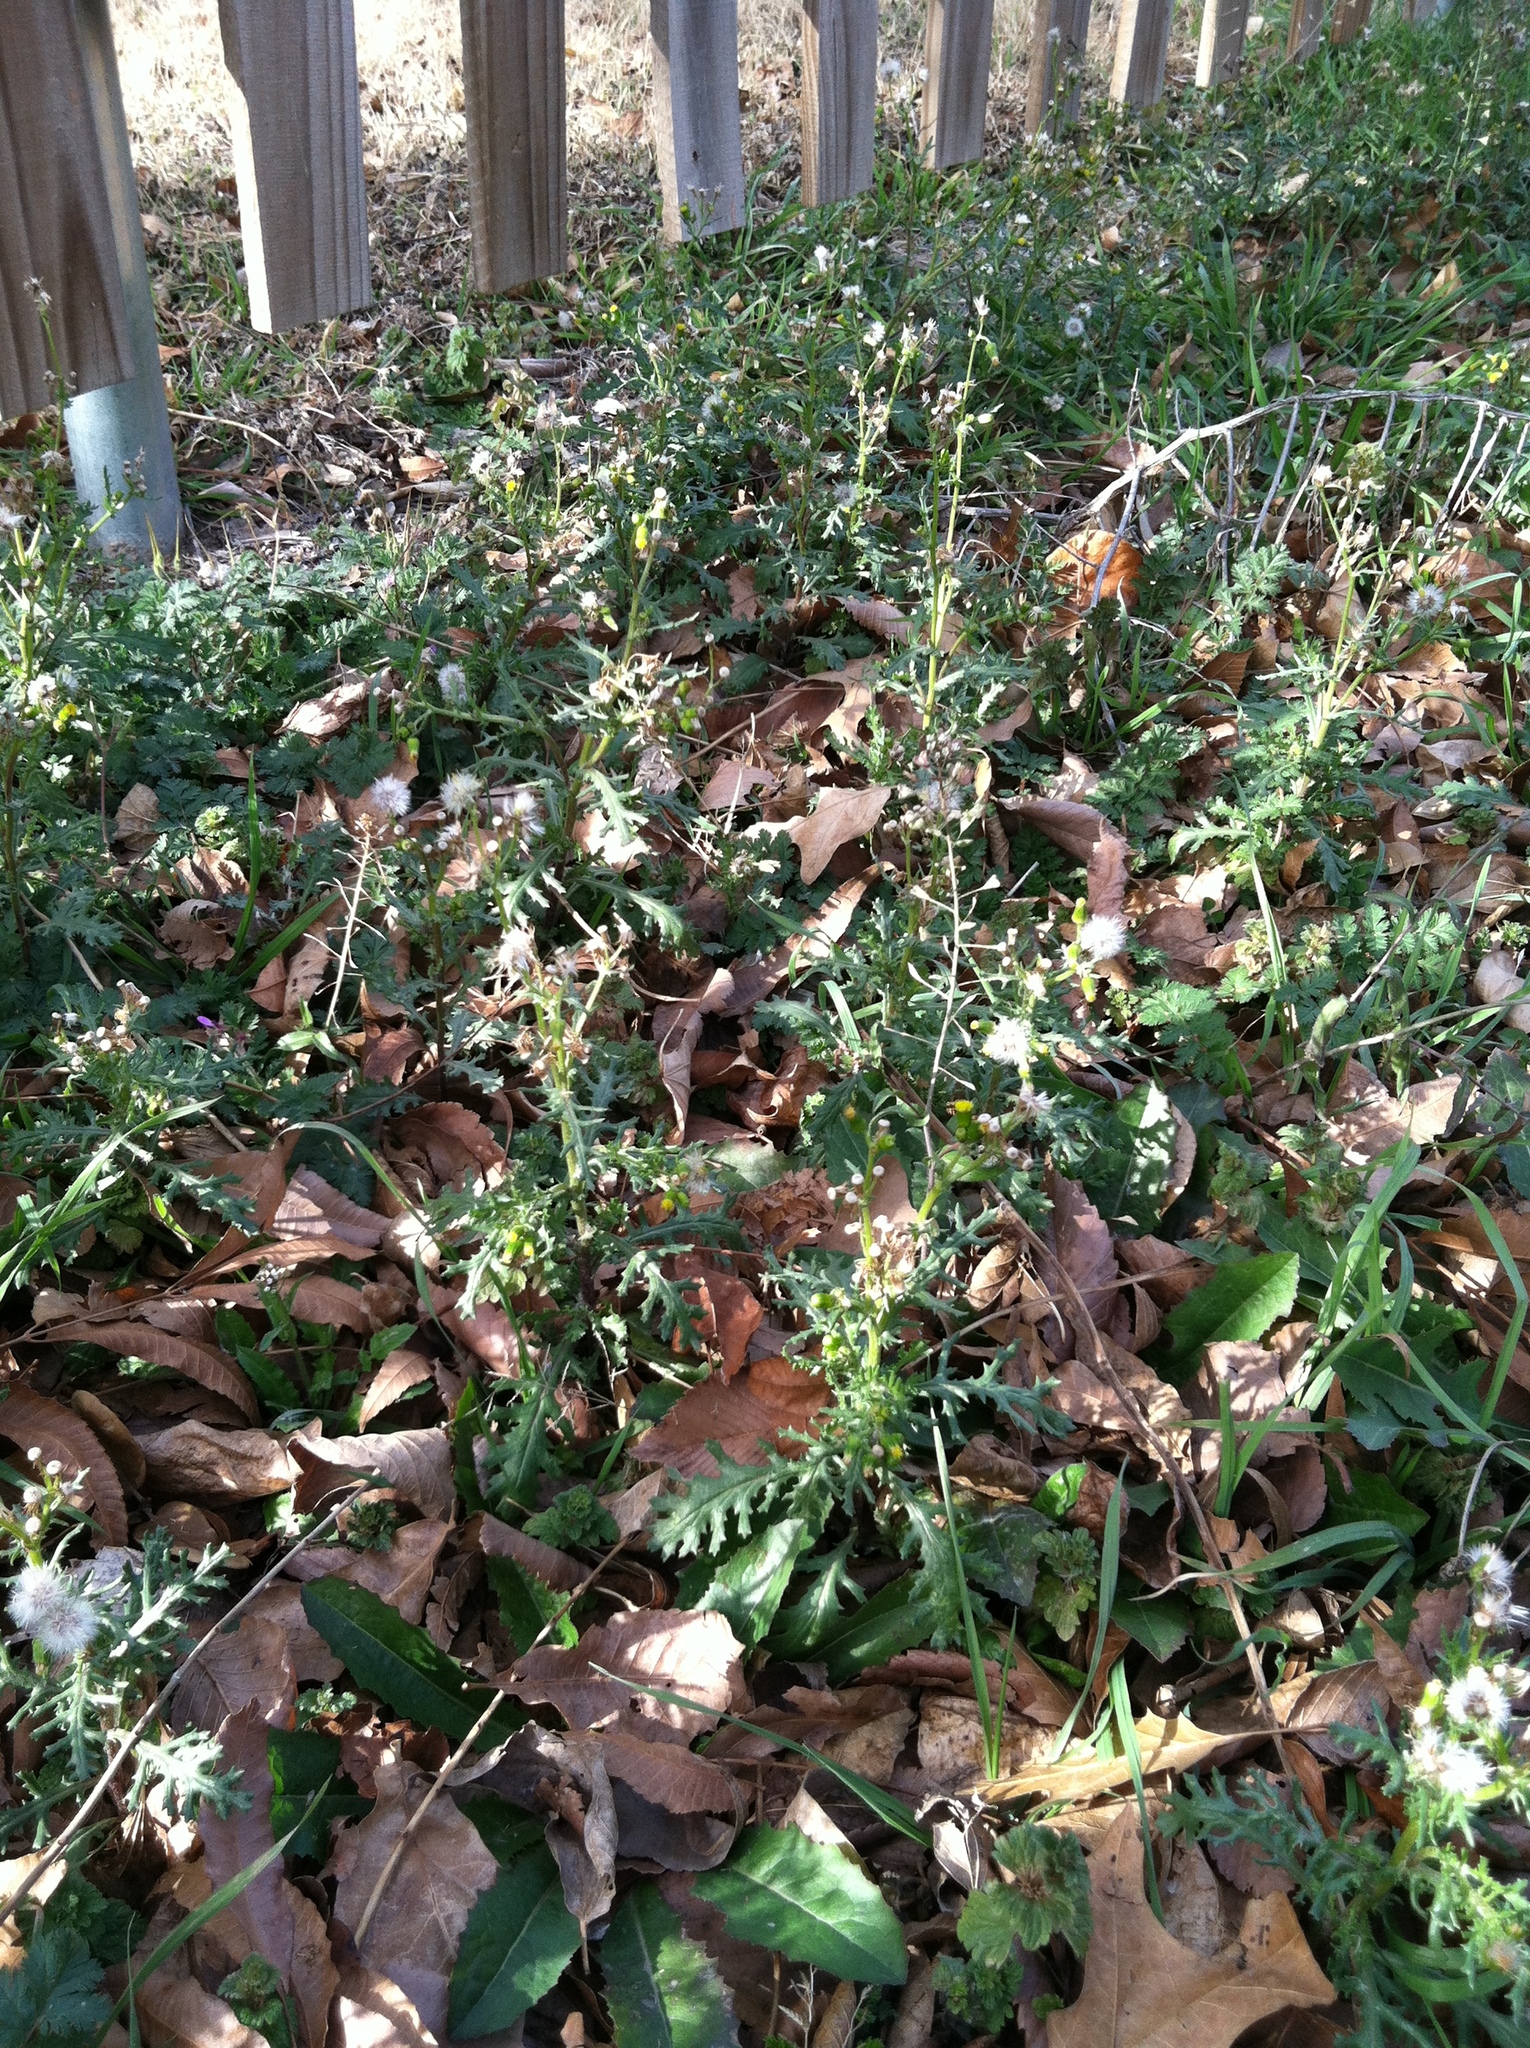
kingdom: Plantae
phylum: Tracheophyta
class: Magnoliopsida
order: Asterales
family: Asteraceae
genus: Senecio
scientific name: Senecio vulgaris
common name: Old-man-in-the-spring
